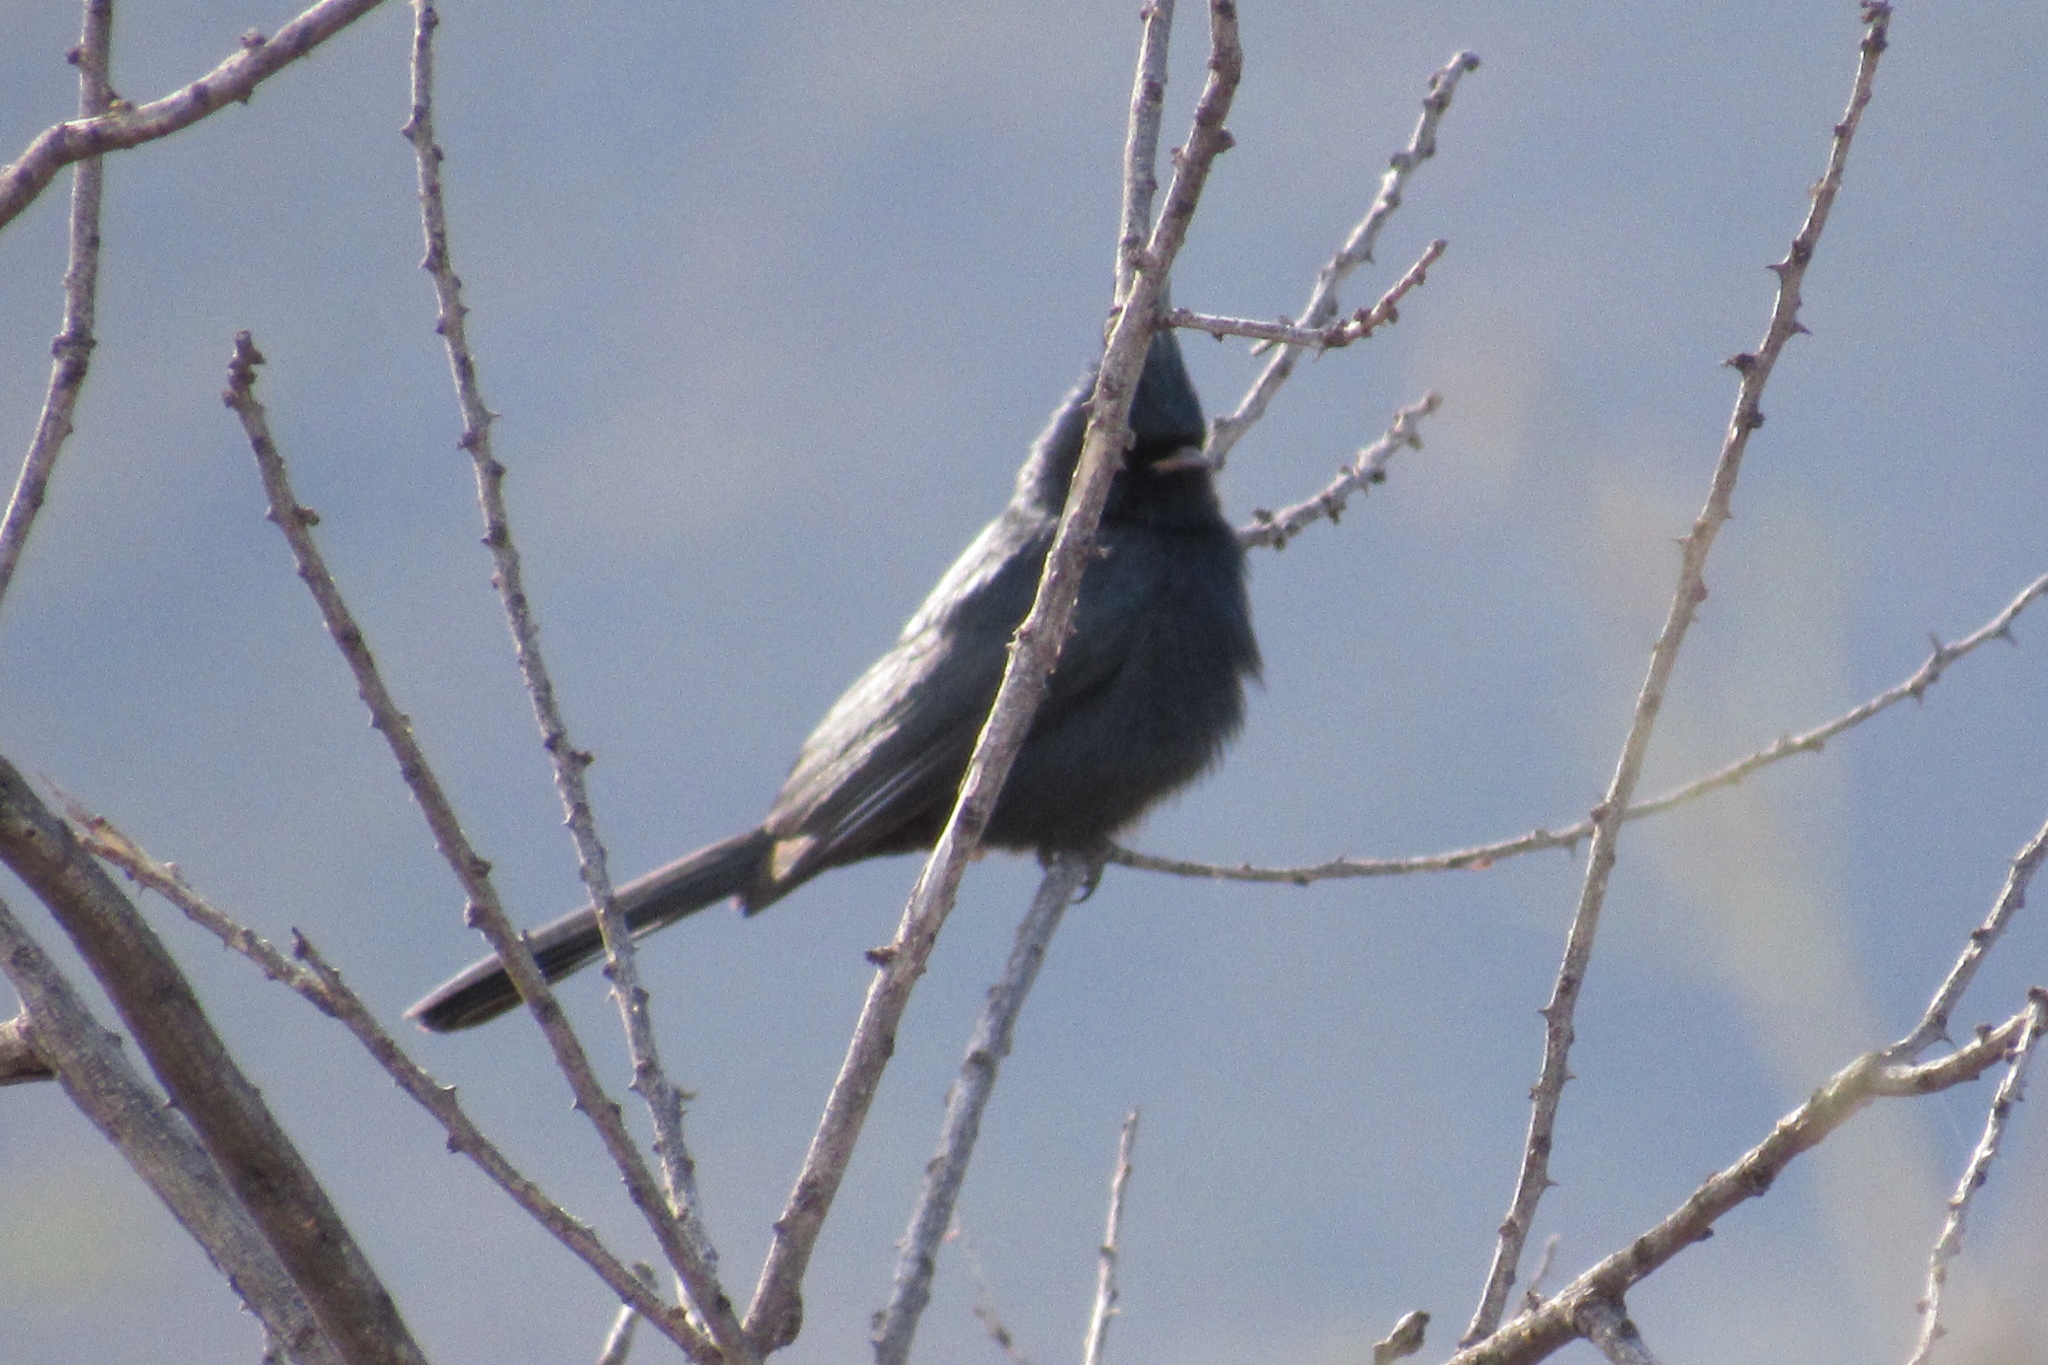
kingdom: Animalia
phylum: Chordata
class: Aves
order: Passeriformes
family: Ptilogonatidae
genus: Phainopepla
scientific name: Phainopepla nitens
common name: Phainopepla
